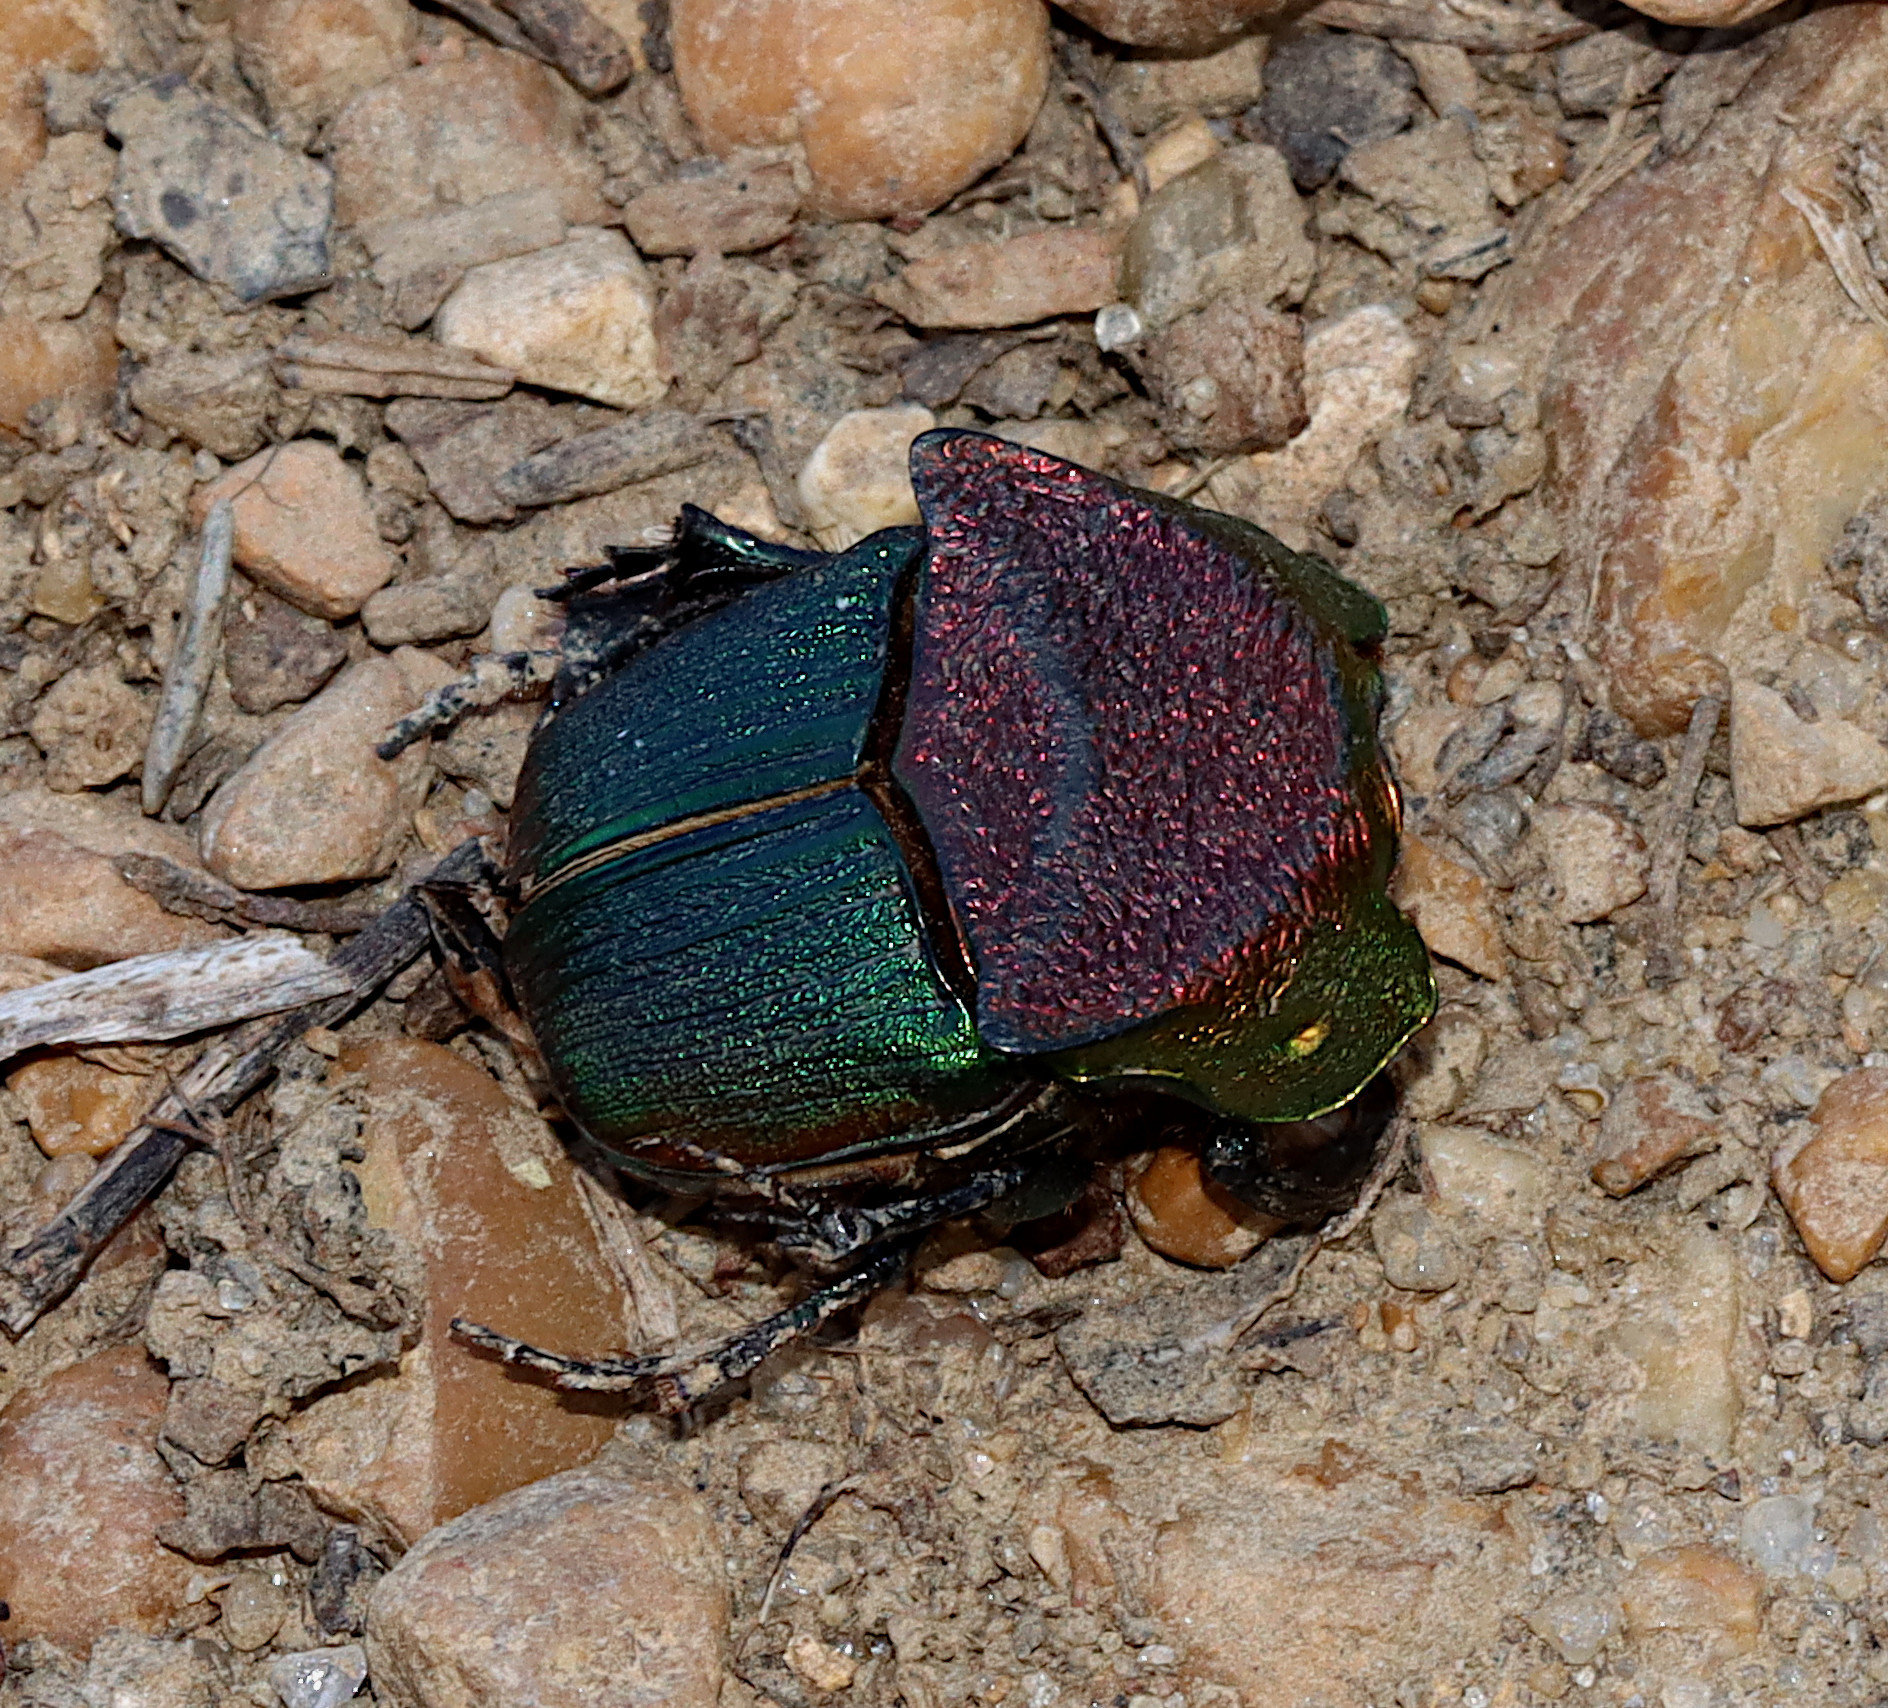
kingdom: Animalia
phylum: Arthropoda
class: Insecta
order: Coleoptera
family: Scarabaeidae
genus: Phanaeus
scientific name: Phanaeus vindex
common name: Rainbow scarab
